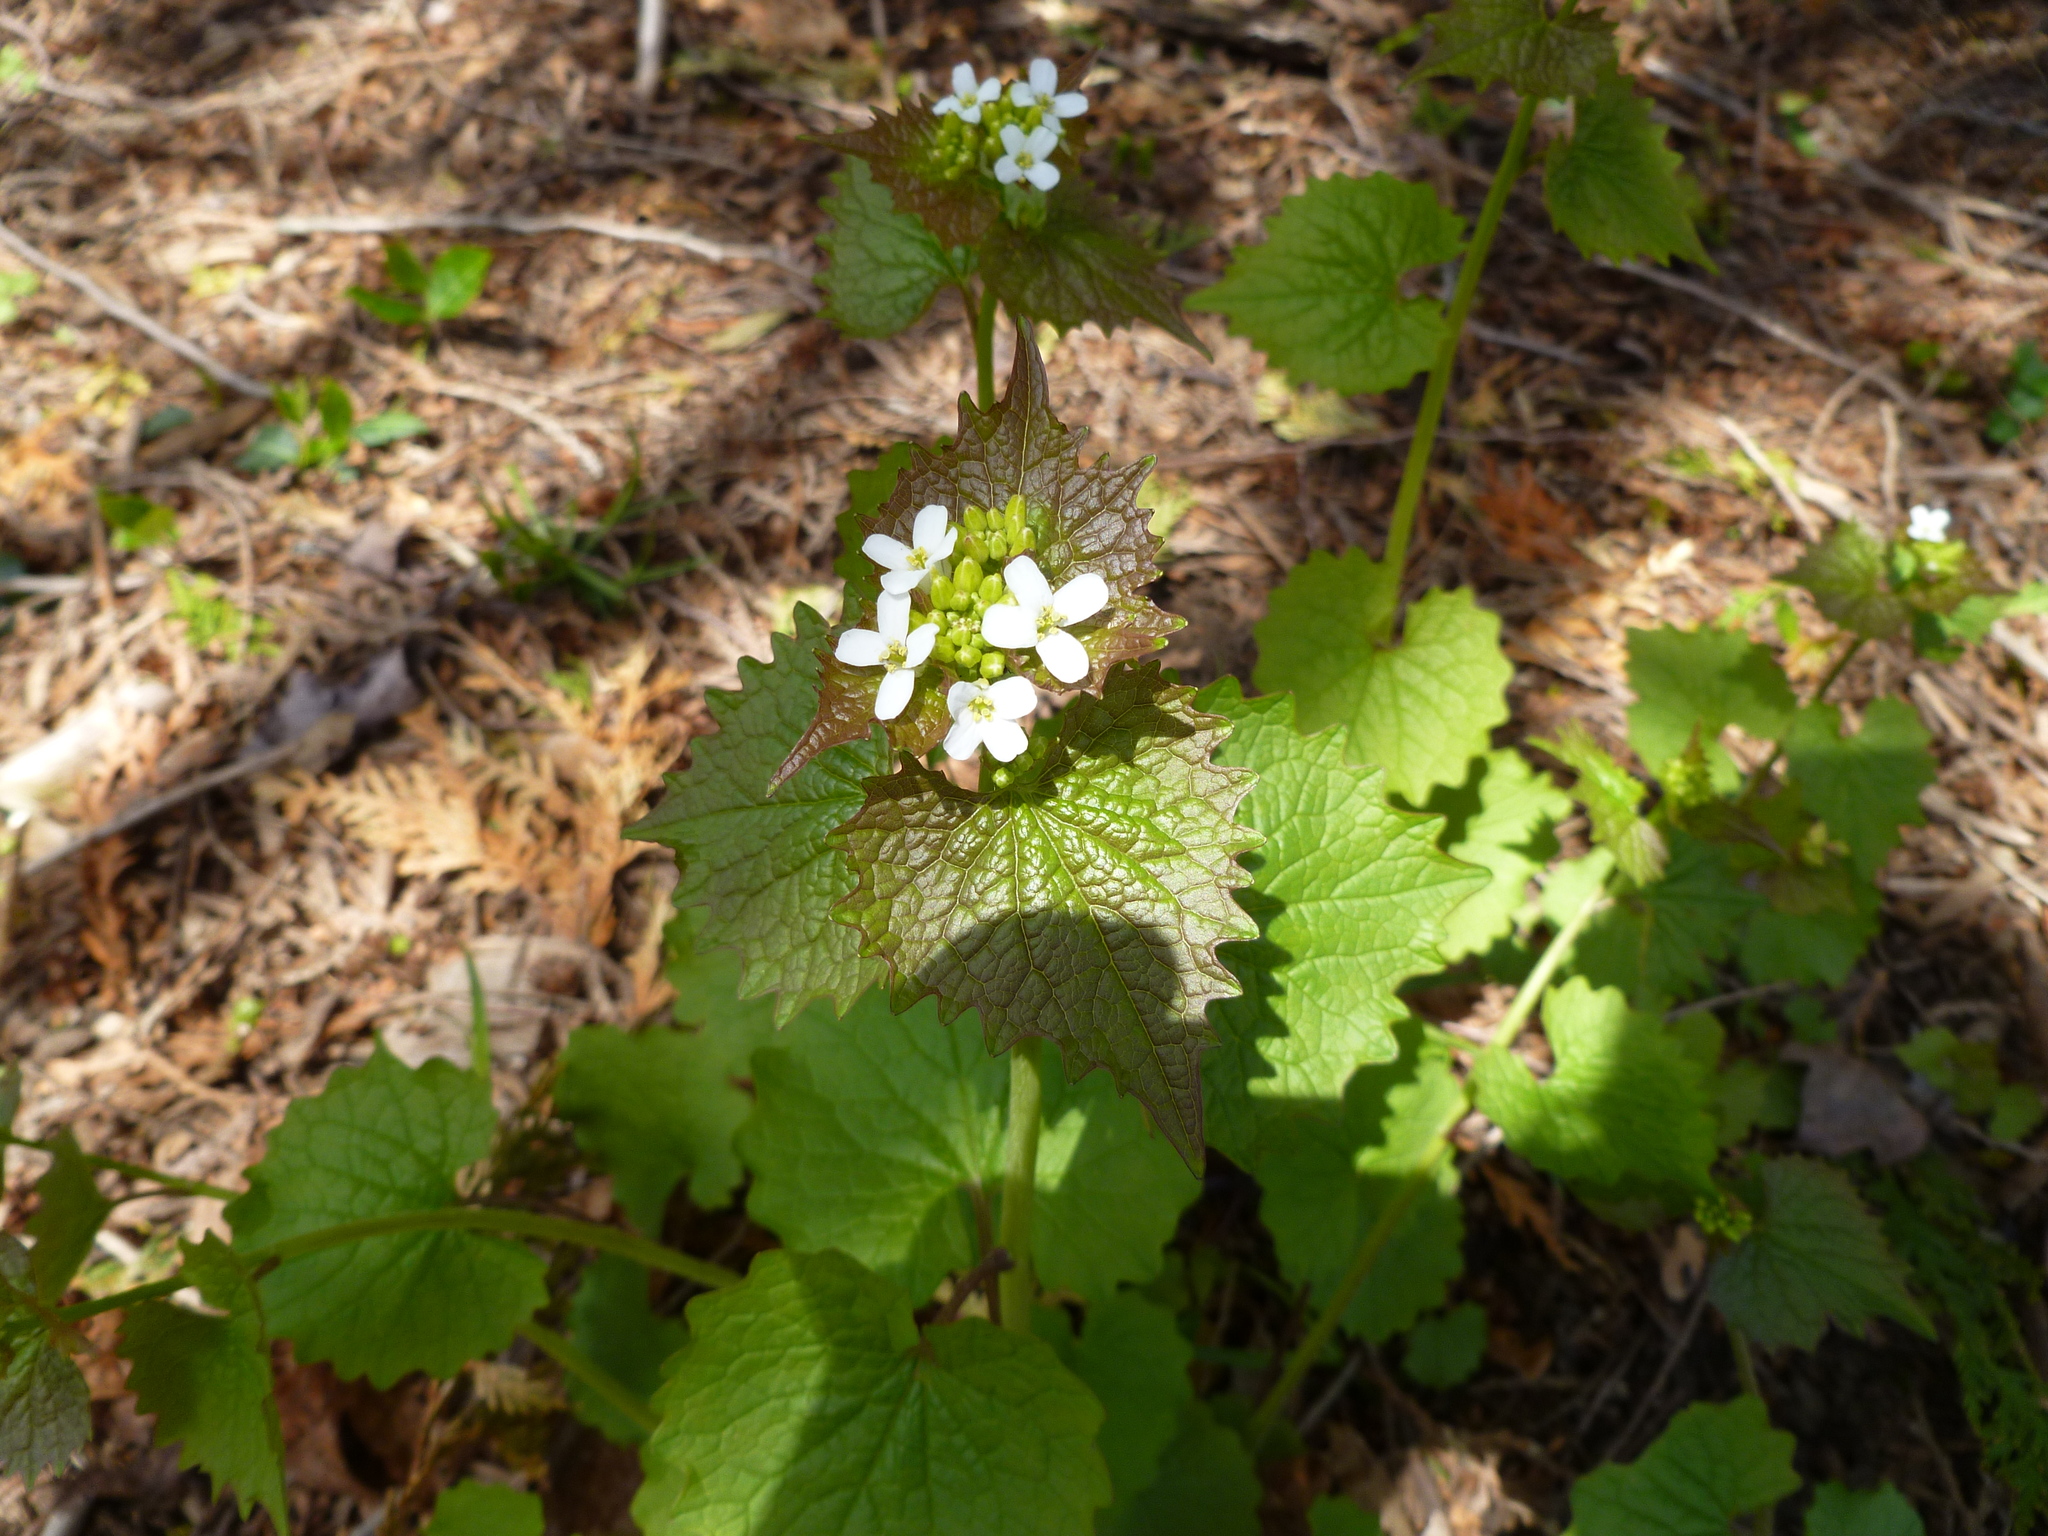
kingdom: Plantae
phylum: Tracheophyta
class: Magnoliopsida
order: Brassicales
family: Brassicaceae
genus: Alliaria
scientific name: Alliaria petiolata
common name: Garlic mustard
